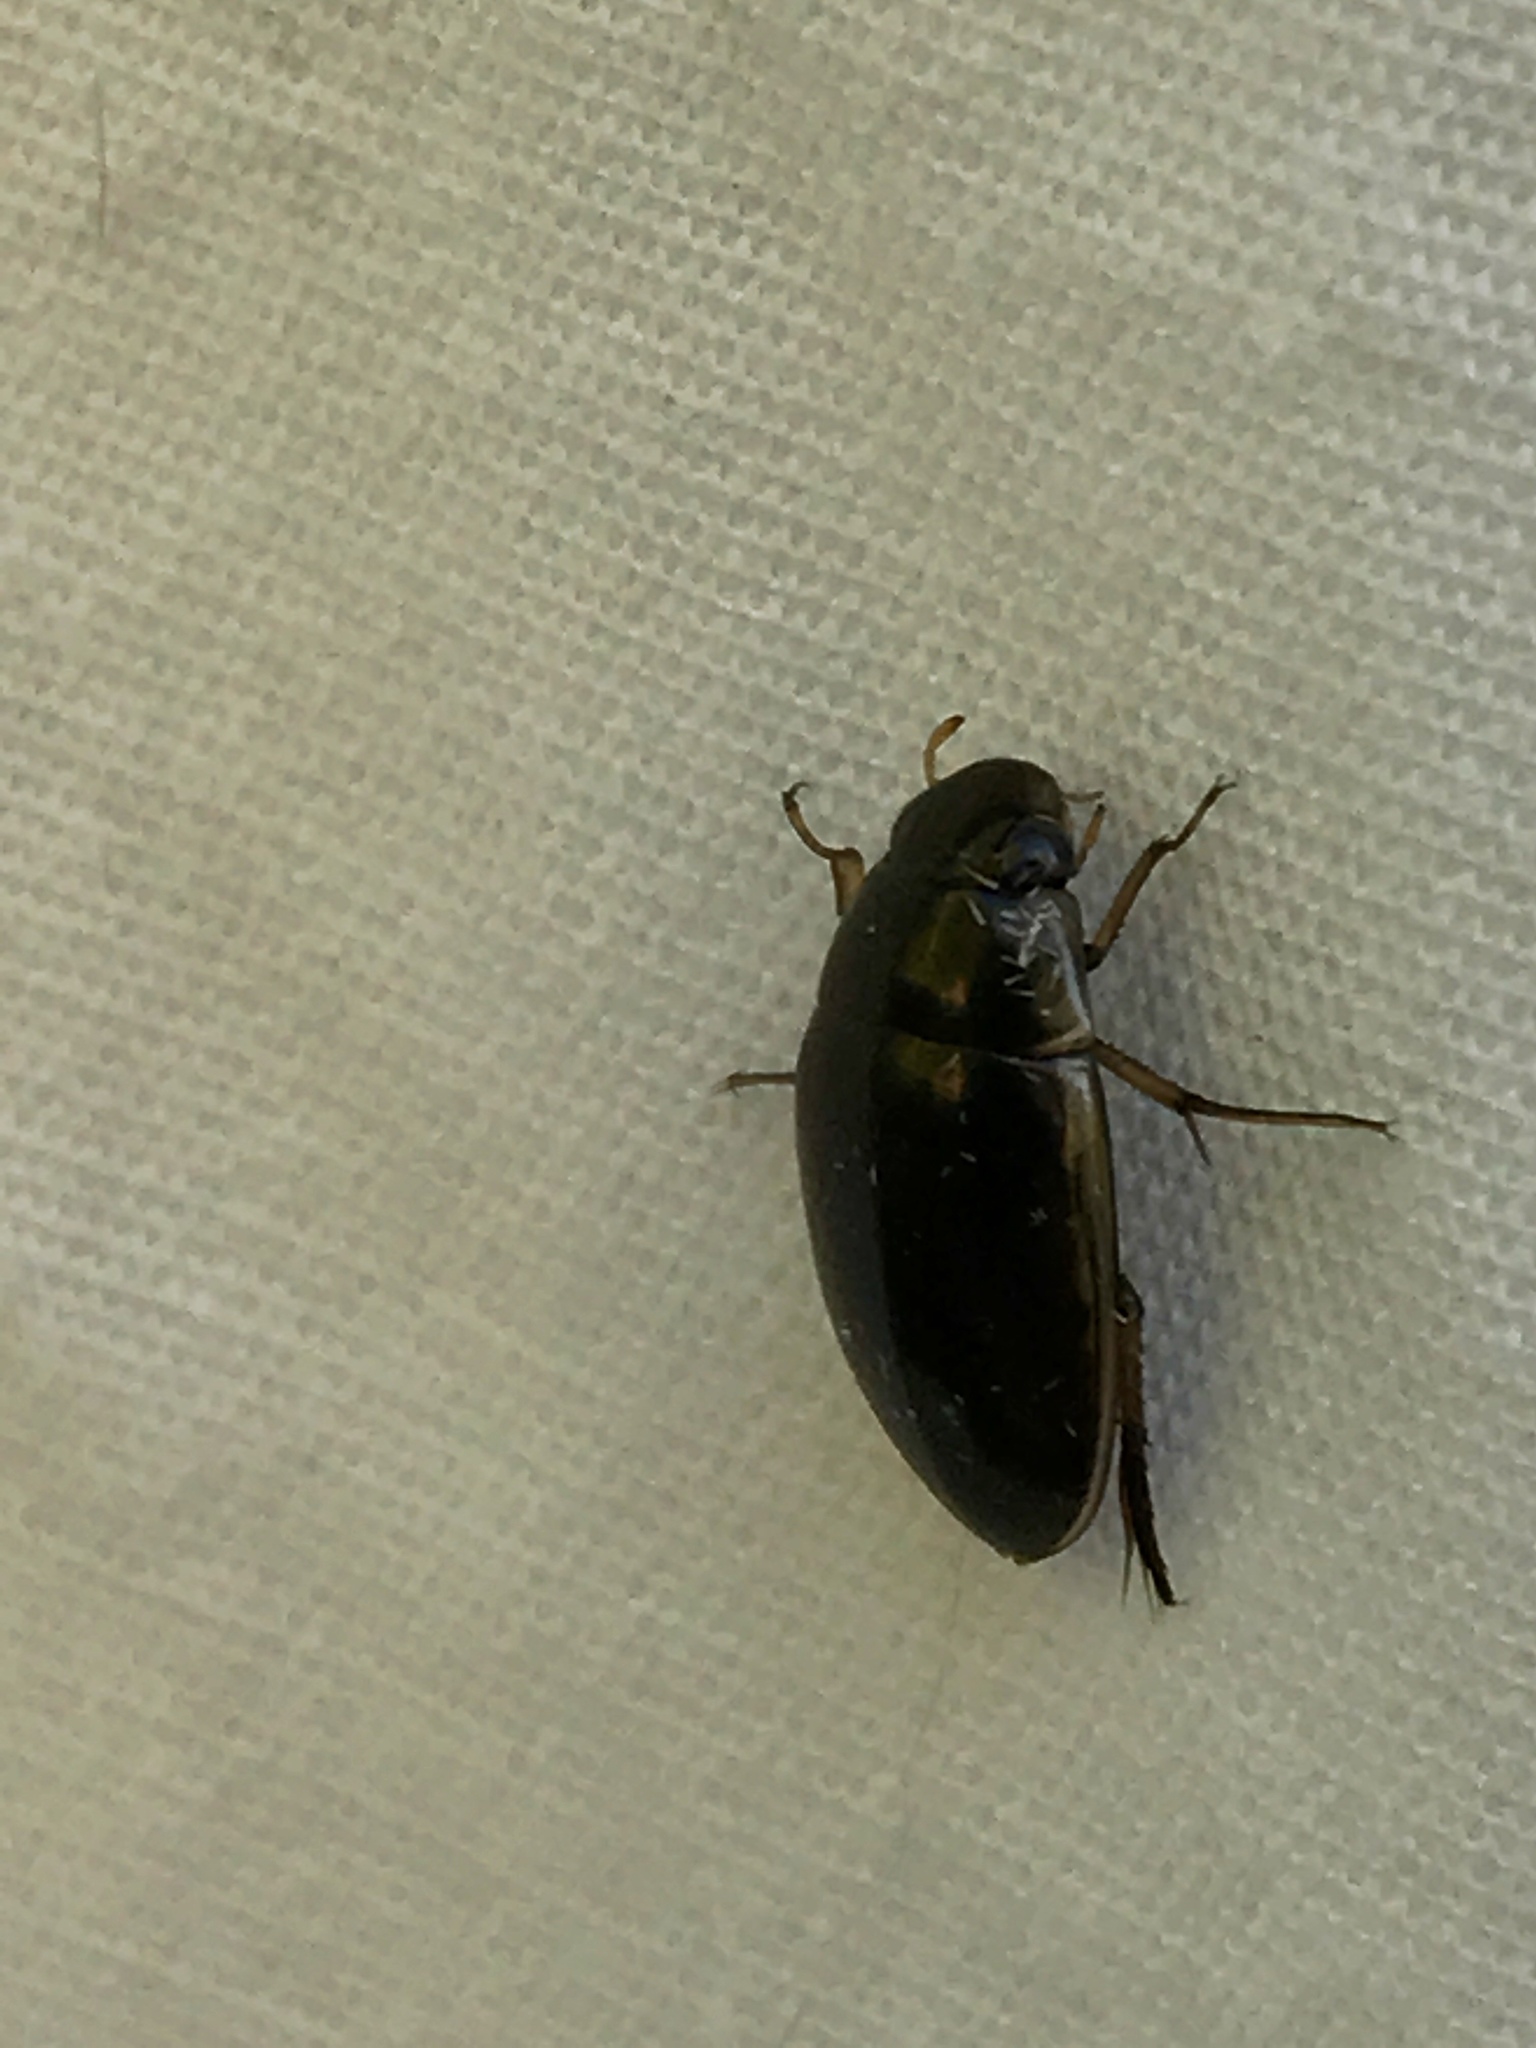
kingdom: Animalia
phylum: Arthropoda
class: Insecta
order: Coleoptera
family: Hydrophilidae
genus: Tropisternus
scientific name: Tropisternus lateralis
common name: Lateral-banded water scavenger beetle
